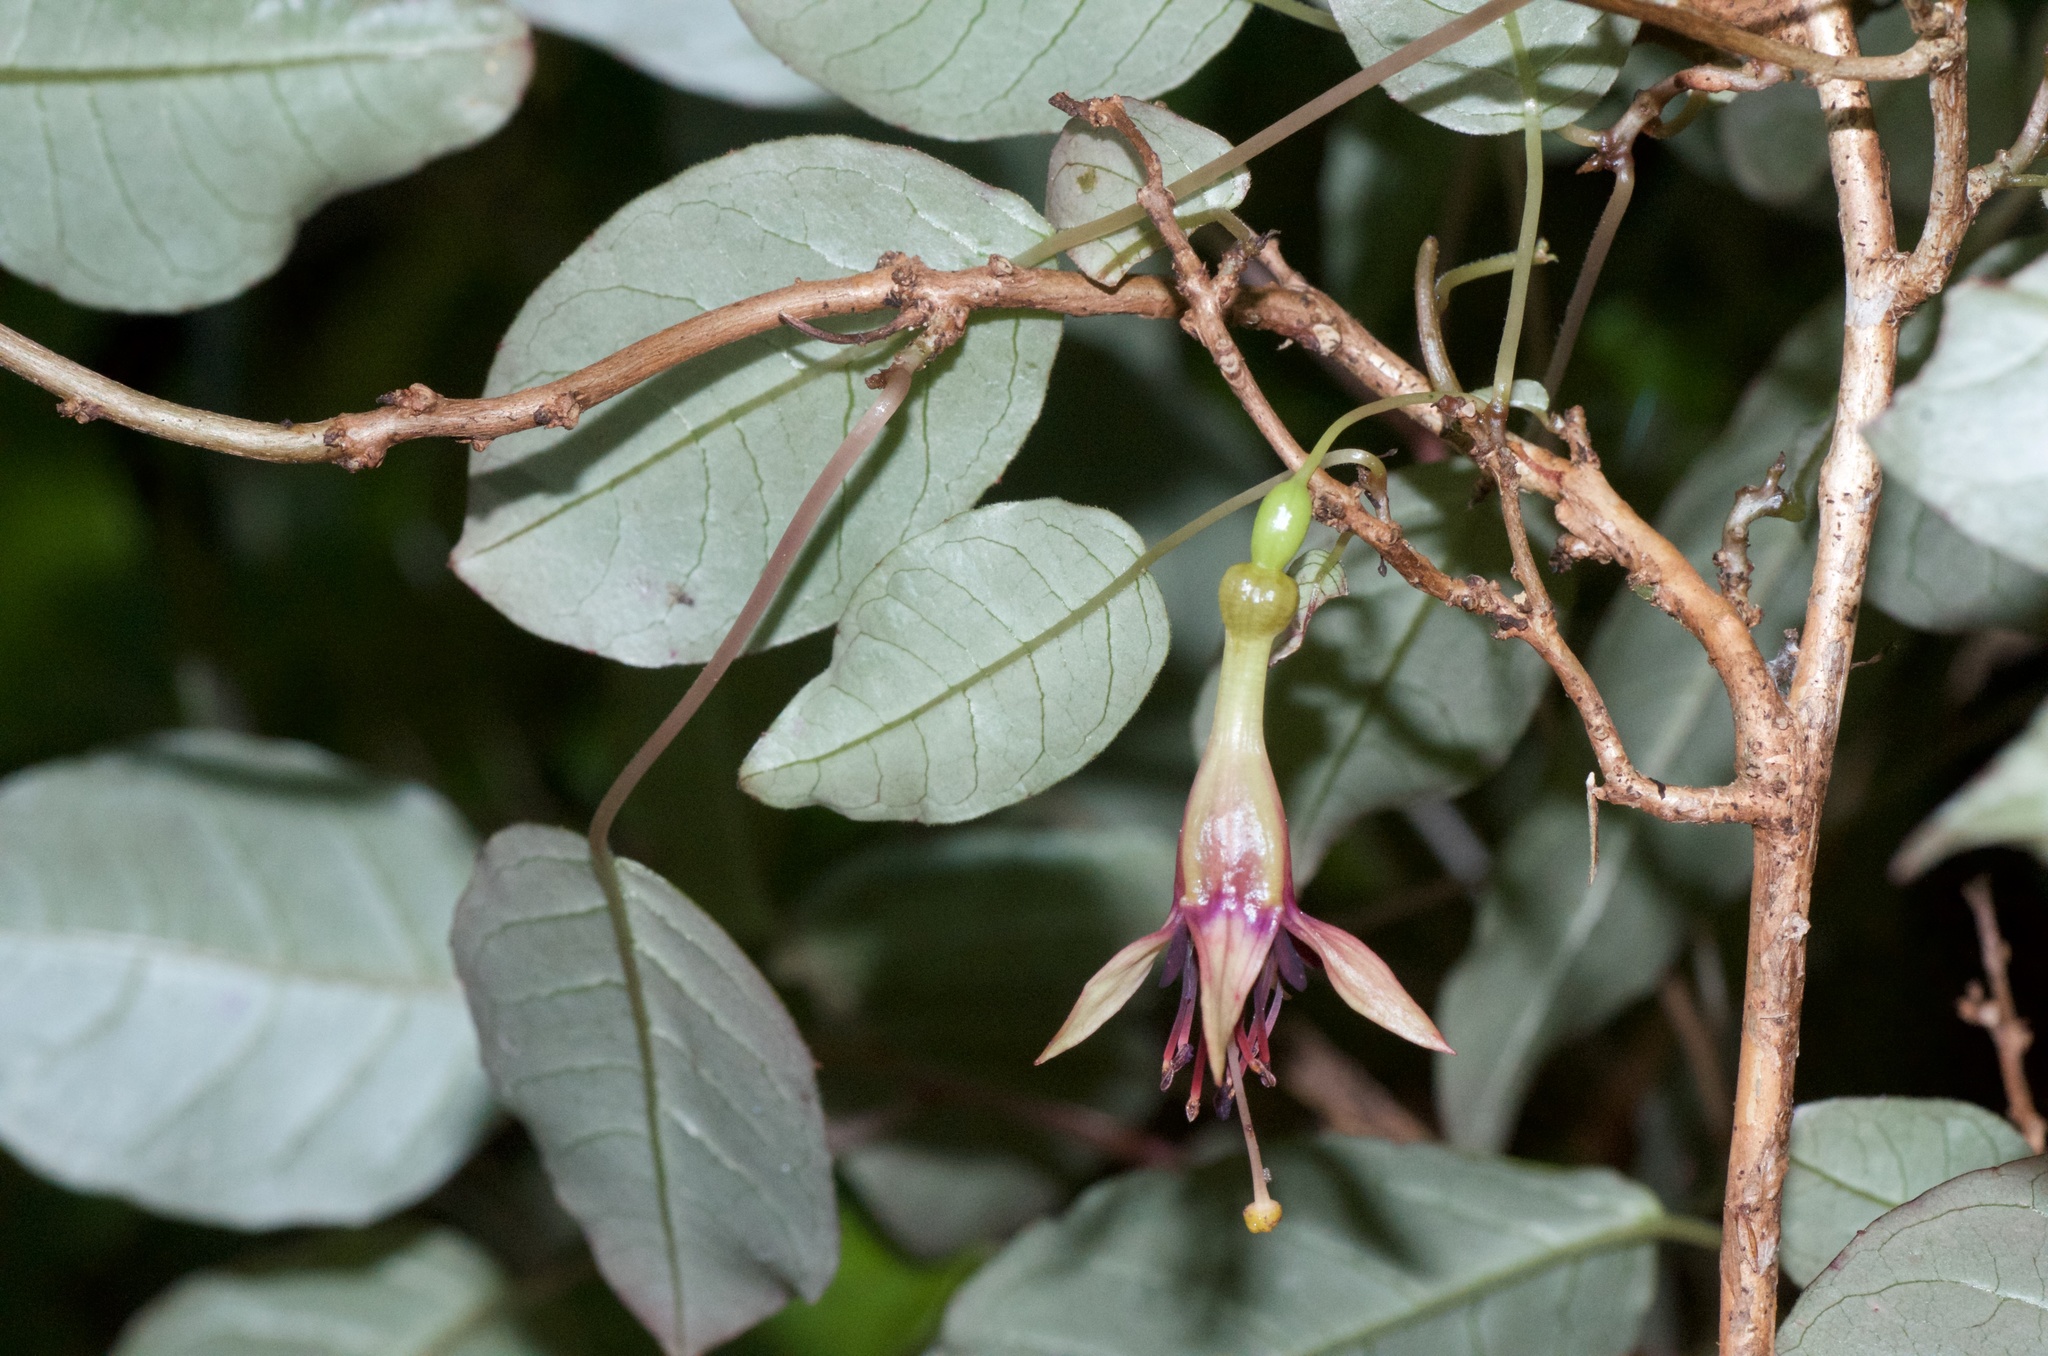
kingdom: Plantae
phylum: Tracheophyta
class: Magnoliopsida
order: Myrtales
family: Onagraceae
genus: Fuchsia
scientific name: Fuchsia colensoi
